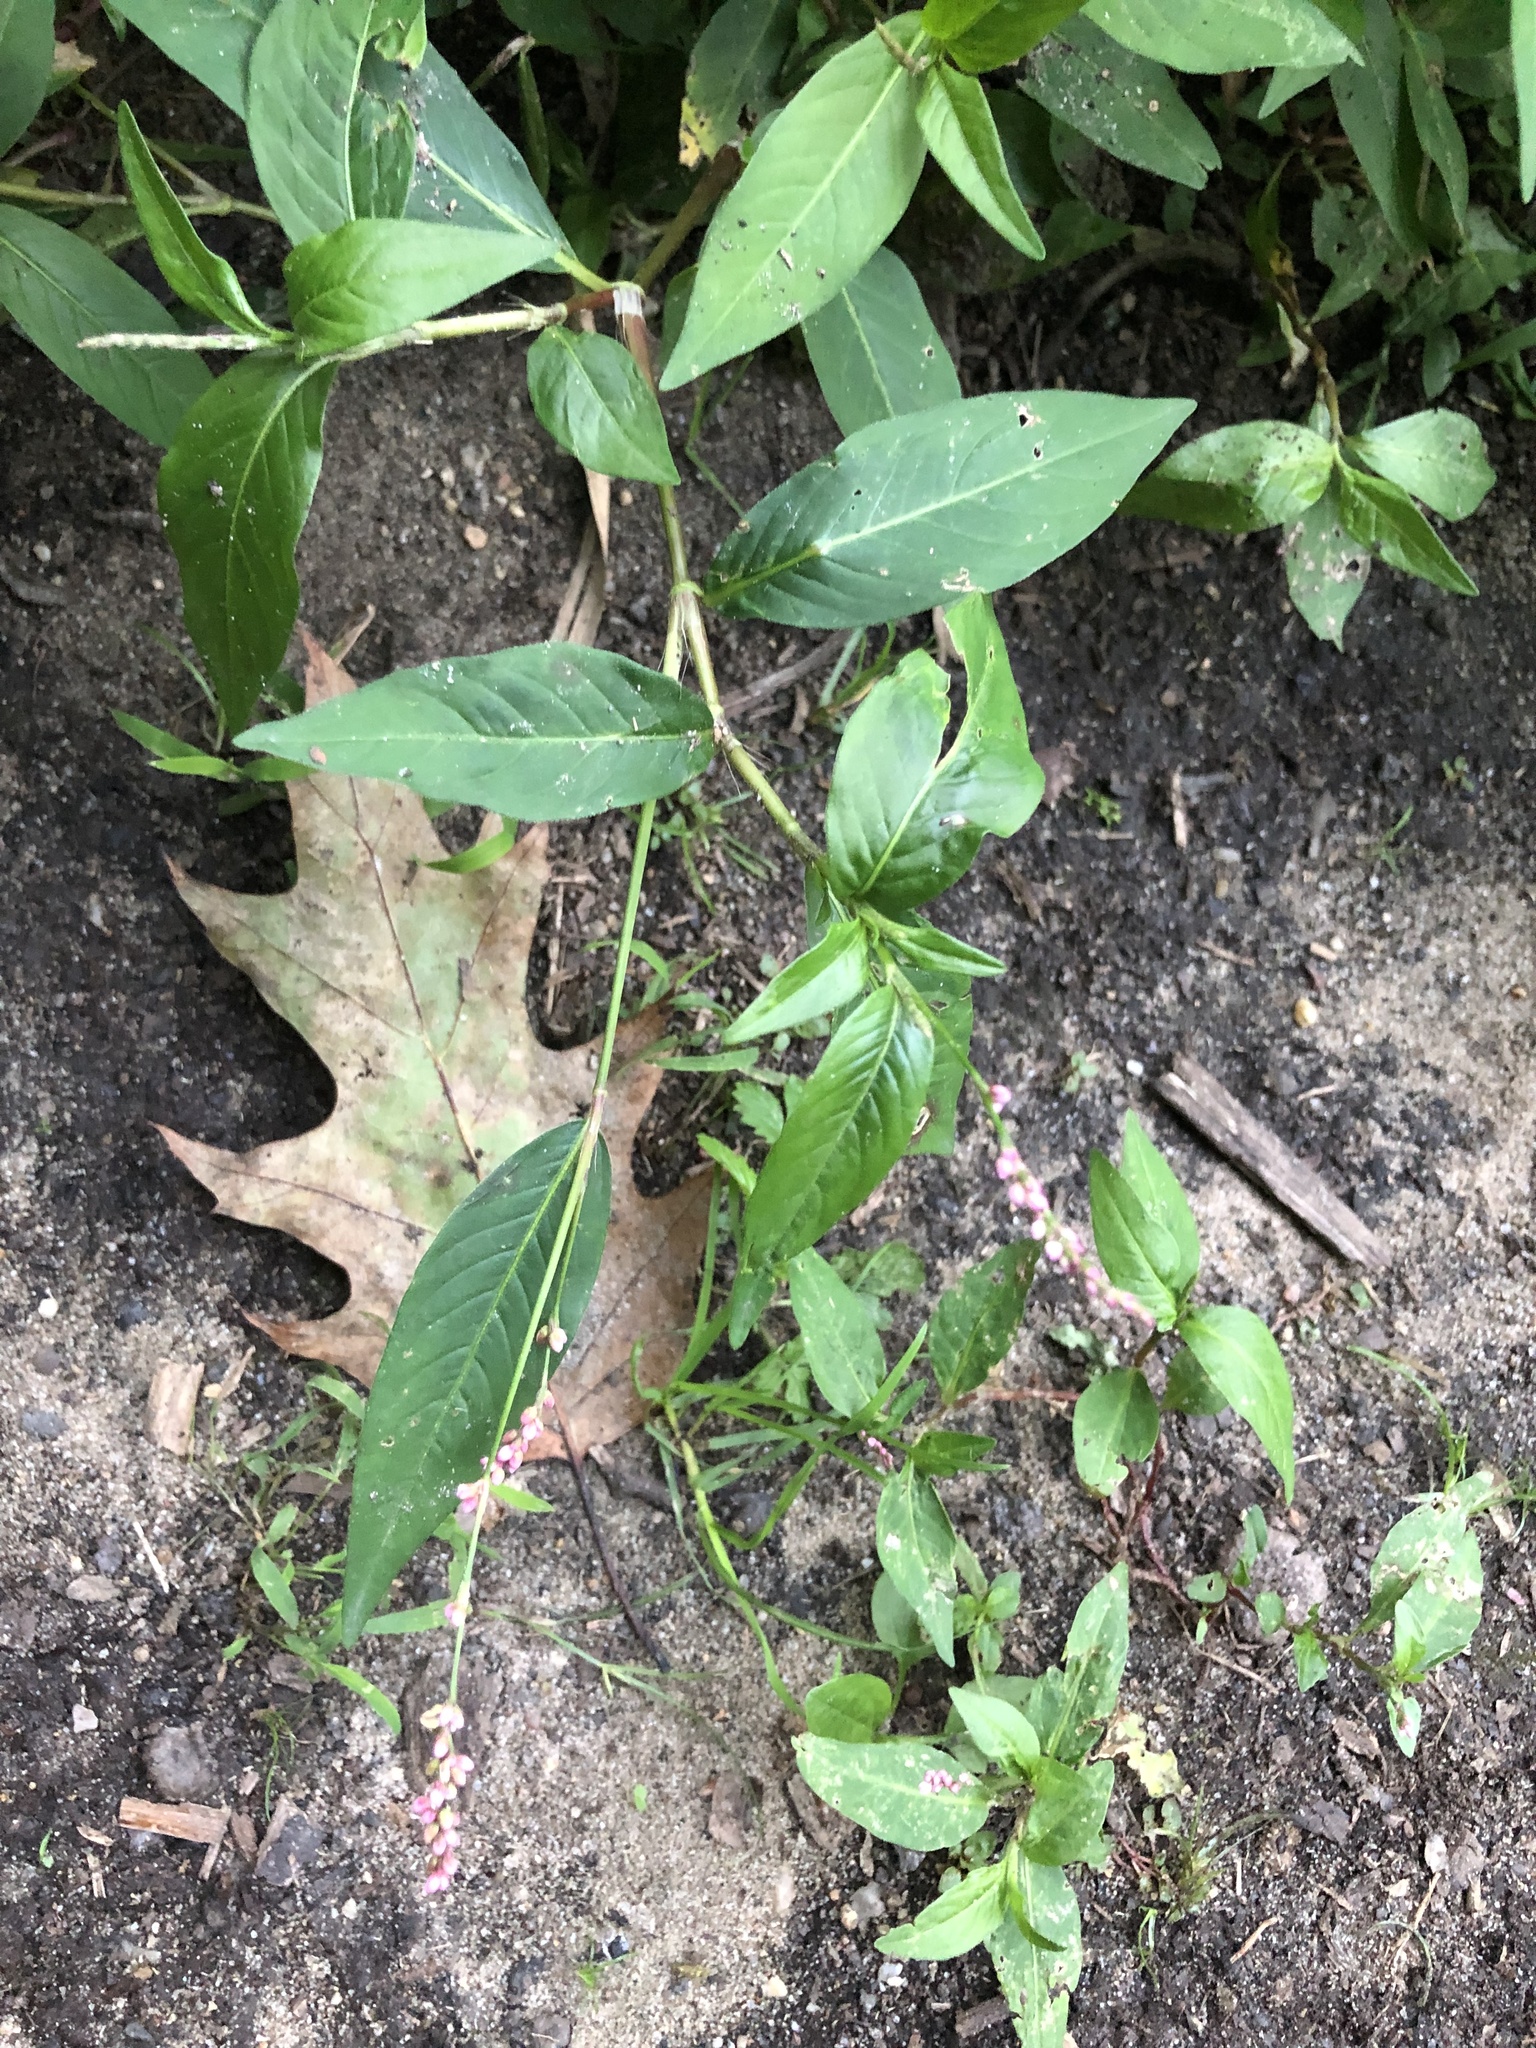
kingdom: Plantae
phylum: Tracheophyta
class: Magnoliopsida
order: Caryophyllales
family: Polygonaceae
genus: Persicaria
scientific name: Persicaria longiseta
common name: Bristly lady's-thumb
